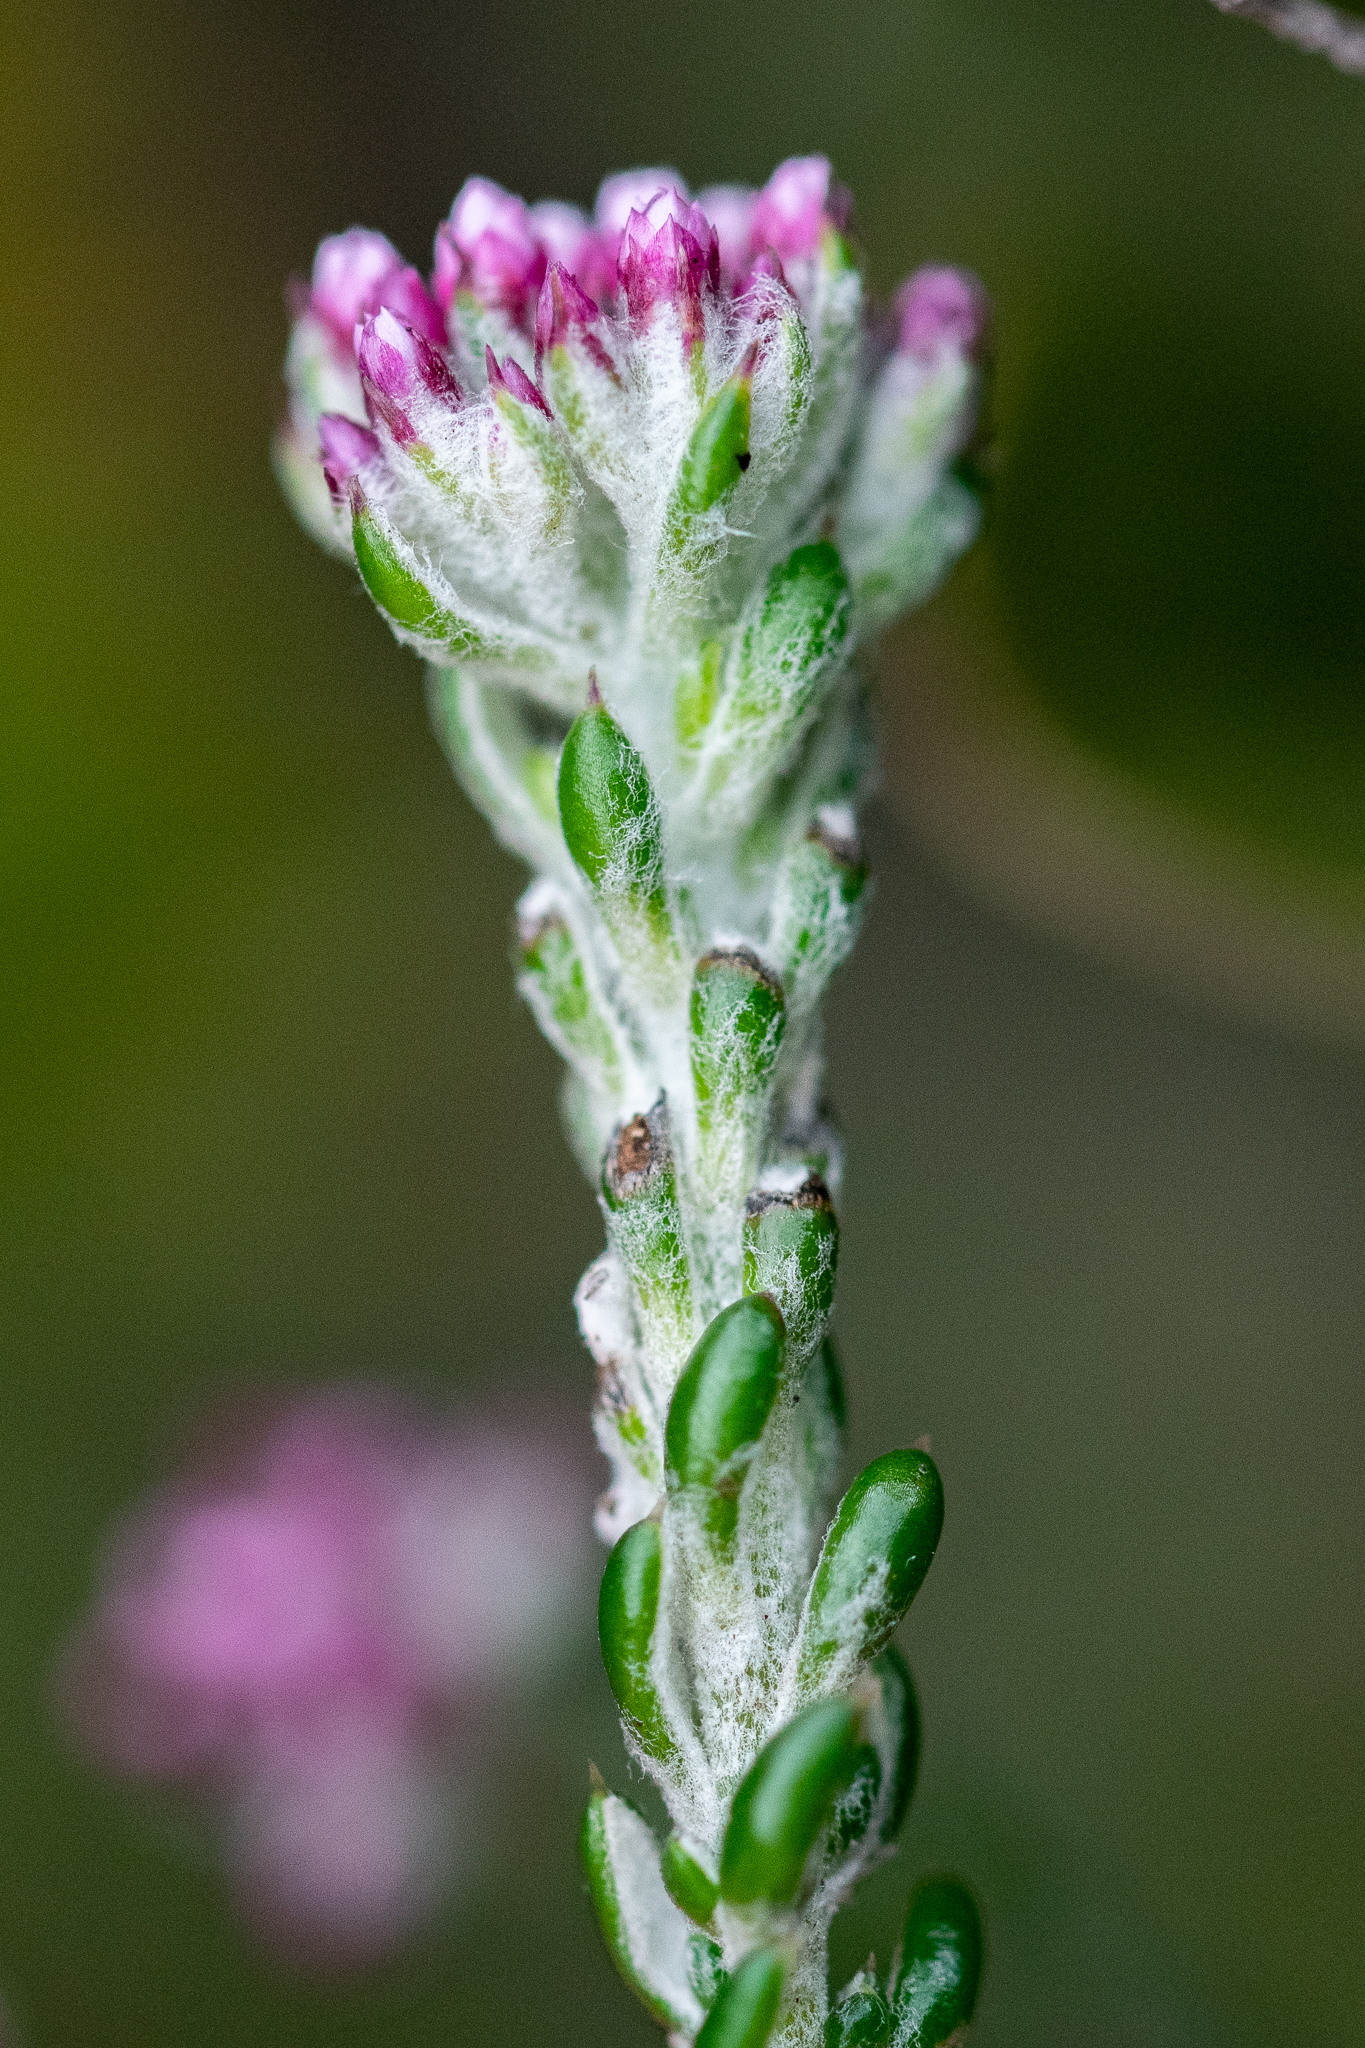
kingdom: Plantae
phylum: Tracheophyta
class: Magnoliopsida
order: Asterales
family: Asteraceae
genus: Metalasia
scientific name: Metalasia cymbifolia
